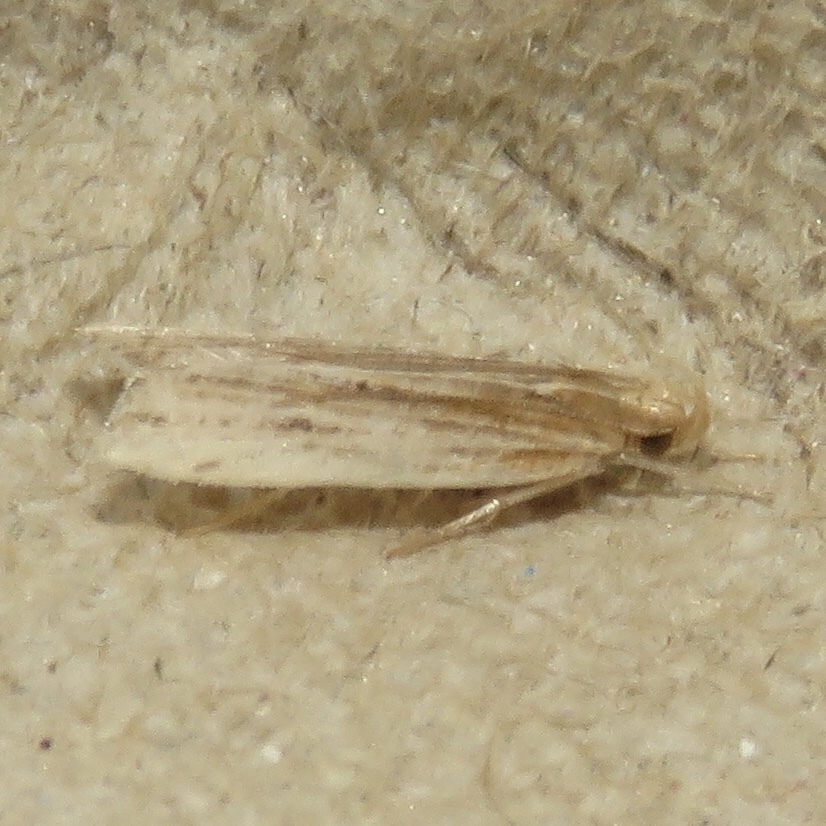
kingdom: Animalia
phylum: Arthropoda
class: Insecta
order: Lepidoptera
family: Gelechiidae
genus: Helcystogramma
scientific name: Helcystogramma hystricella
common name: Lanceolate moth
